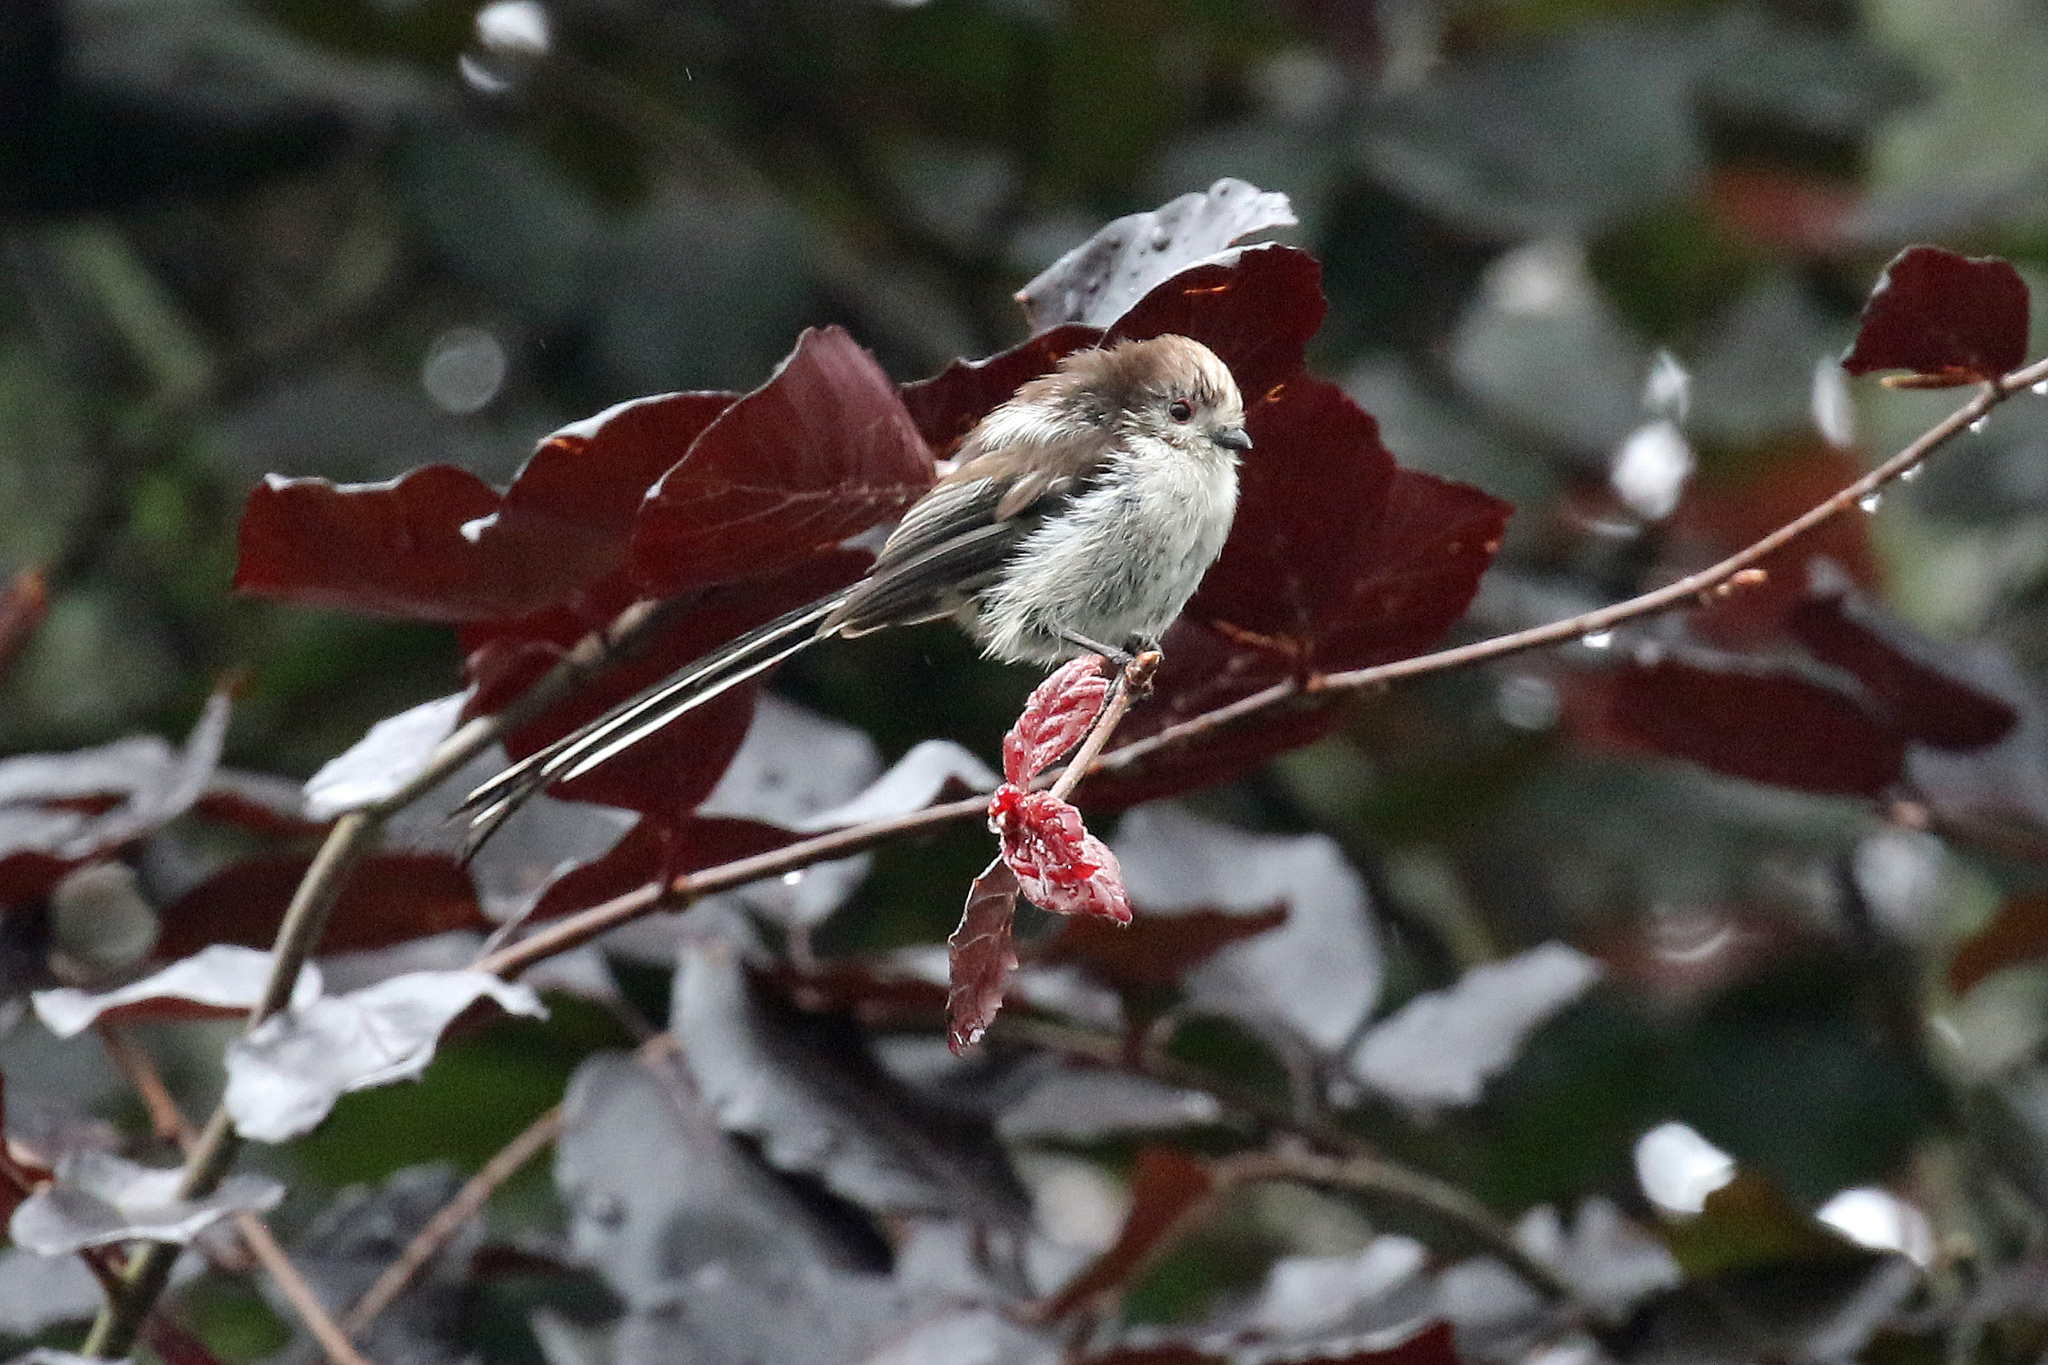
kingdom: Animalia
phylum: Chordata
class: Aves
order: Passeriformes
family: Aegithalidae
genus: Aegithalos
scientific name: Aegithalos caudatus
